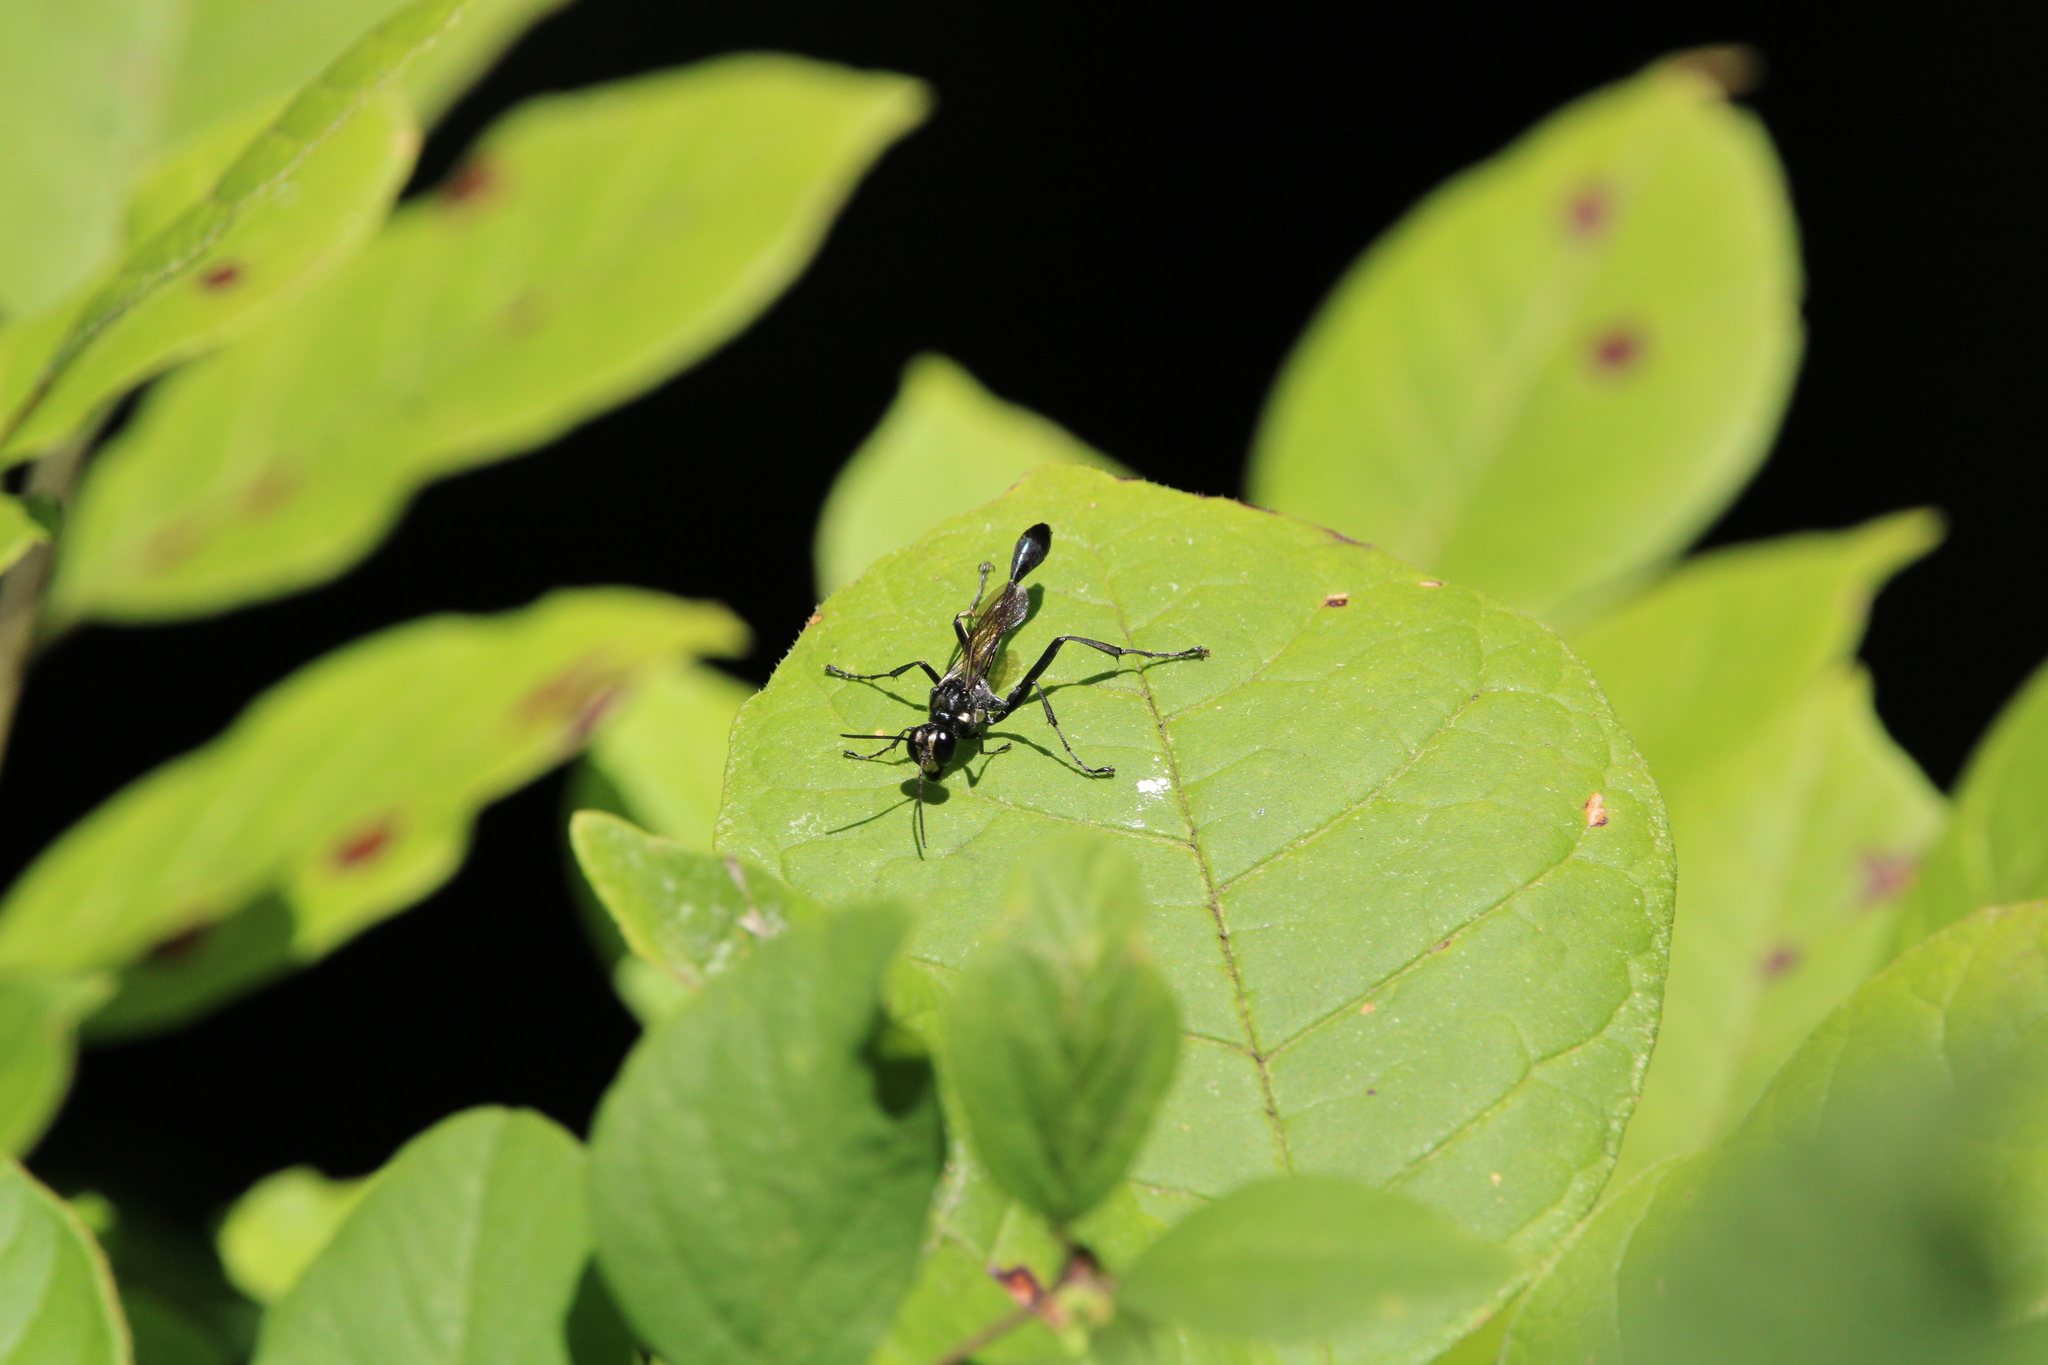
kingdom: Animalia
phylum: Arthropoda
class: Insecta
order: Hymenoptera
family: Sphecidae
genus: Eremnophila
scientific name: Eremnophila aureonotata
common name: Gold-marked thread-waisted wasp
